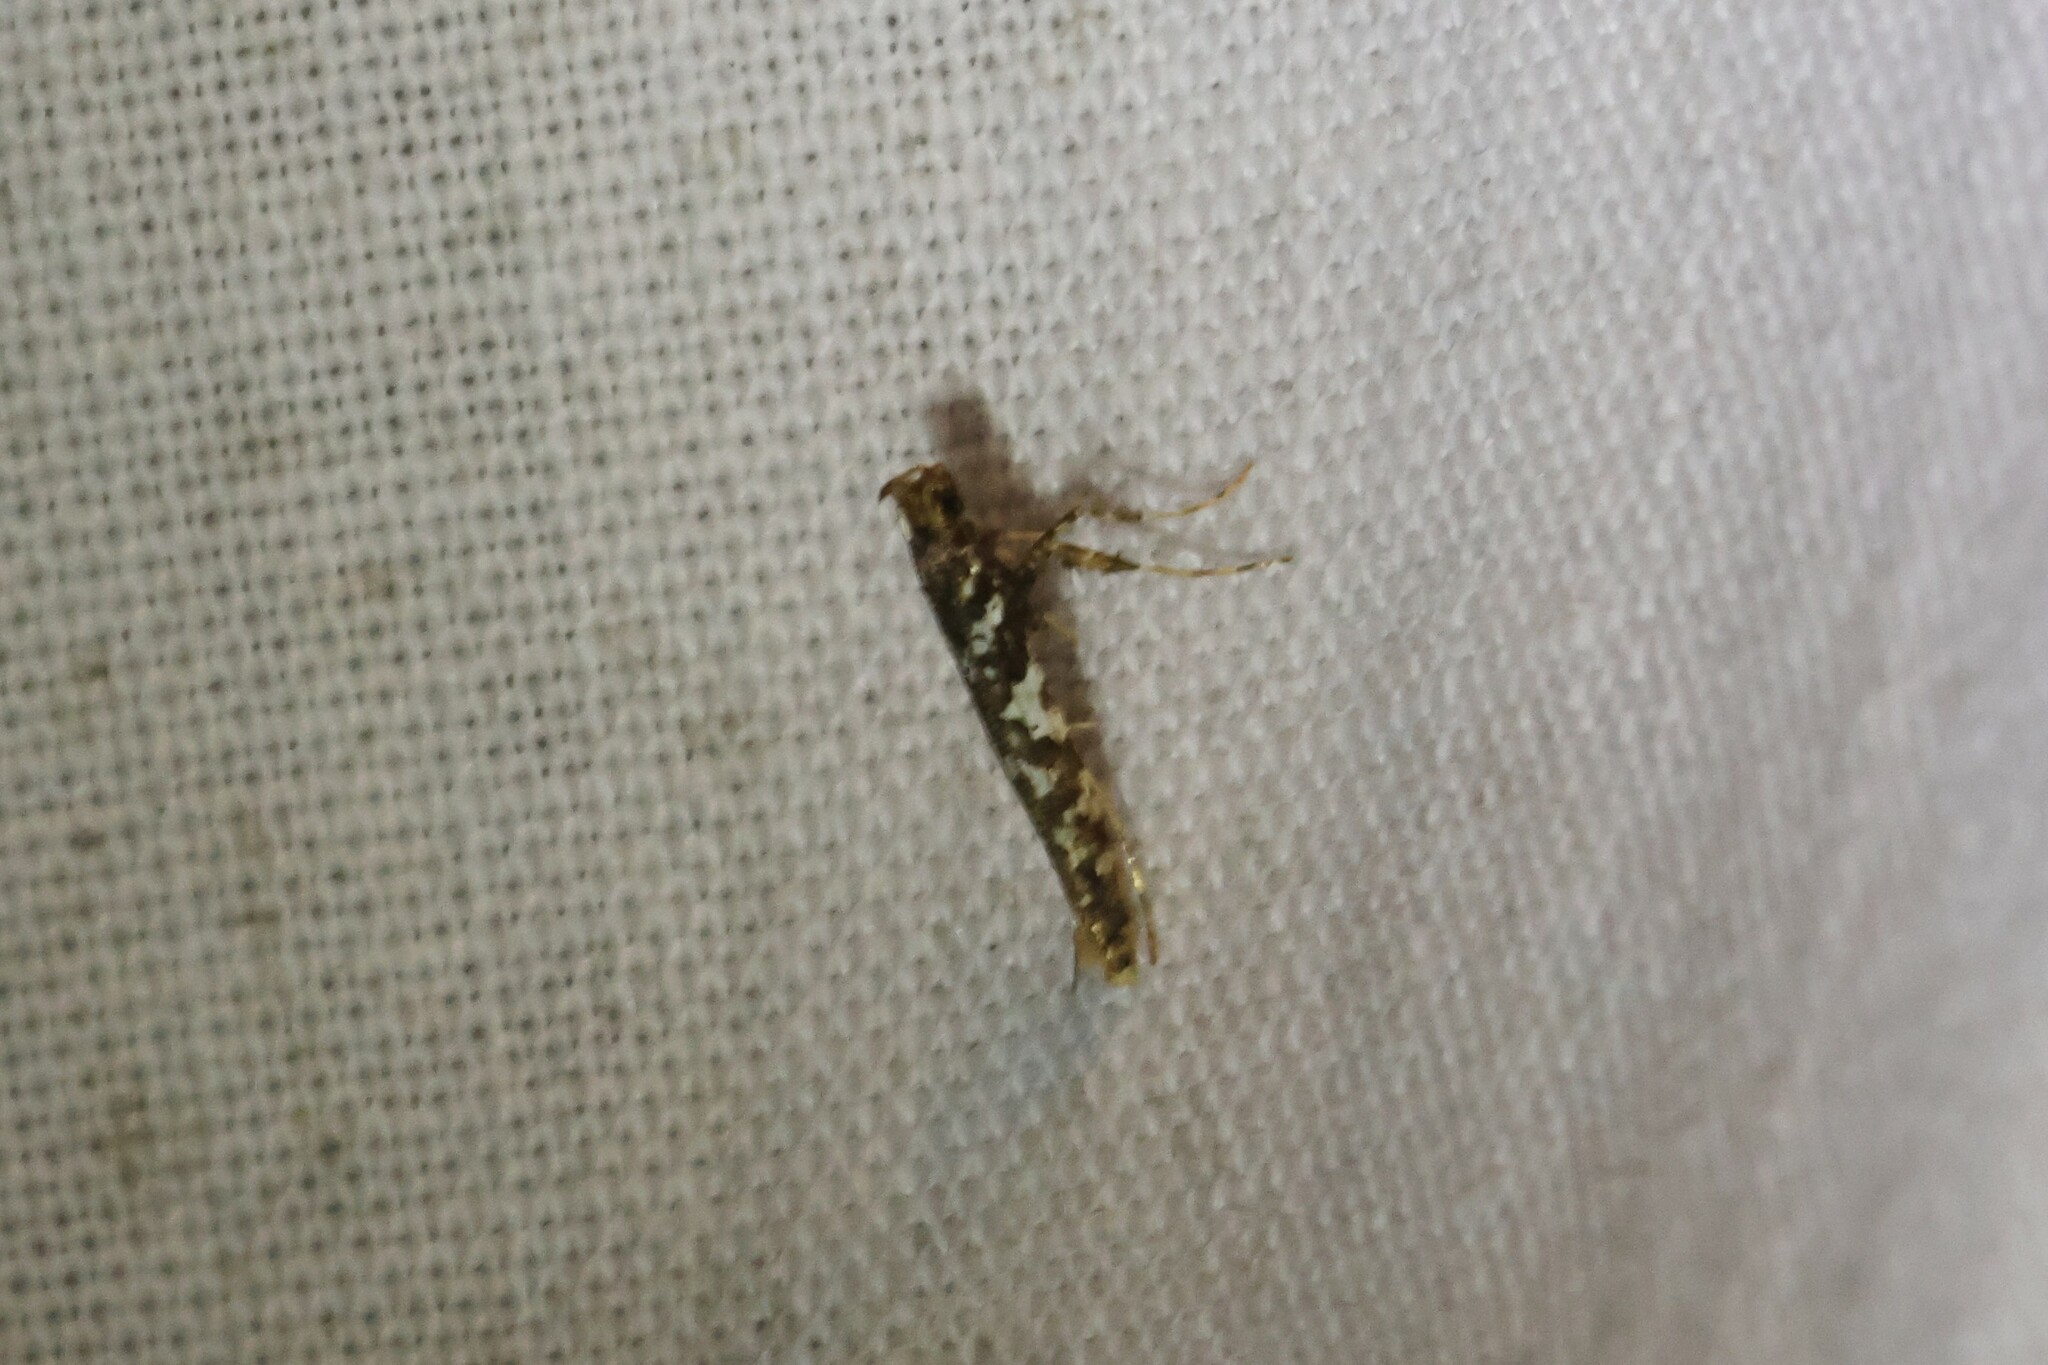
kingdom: Animalia
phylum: Arthropoda
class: Insecta
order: Lepidoptera
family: Gracillariidae
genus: Caloptilia
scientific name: Caloptilia serotinella
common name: Cherry leafroller moth
